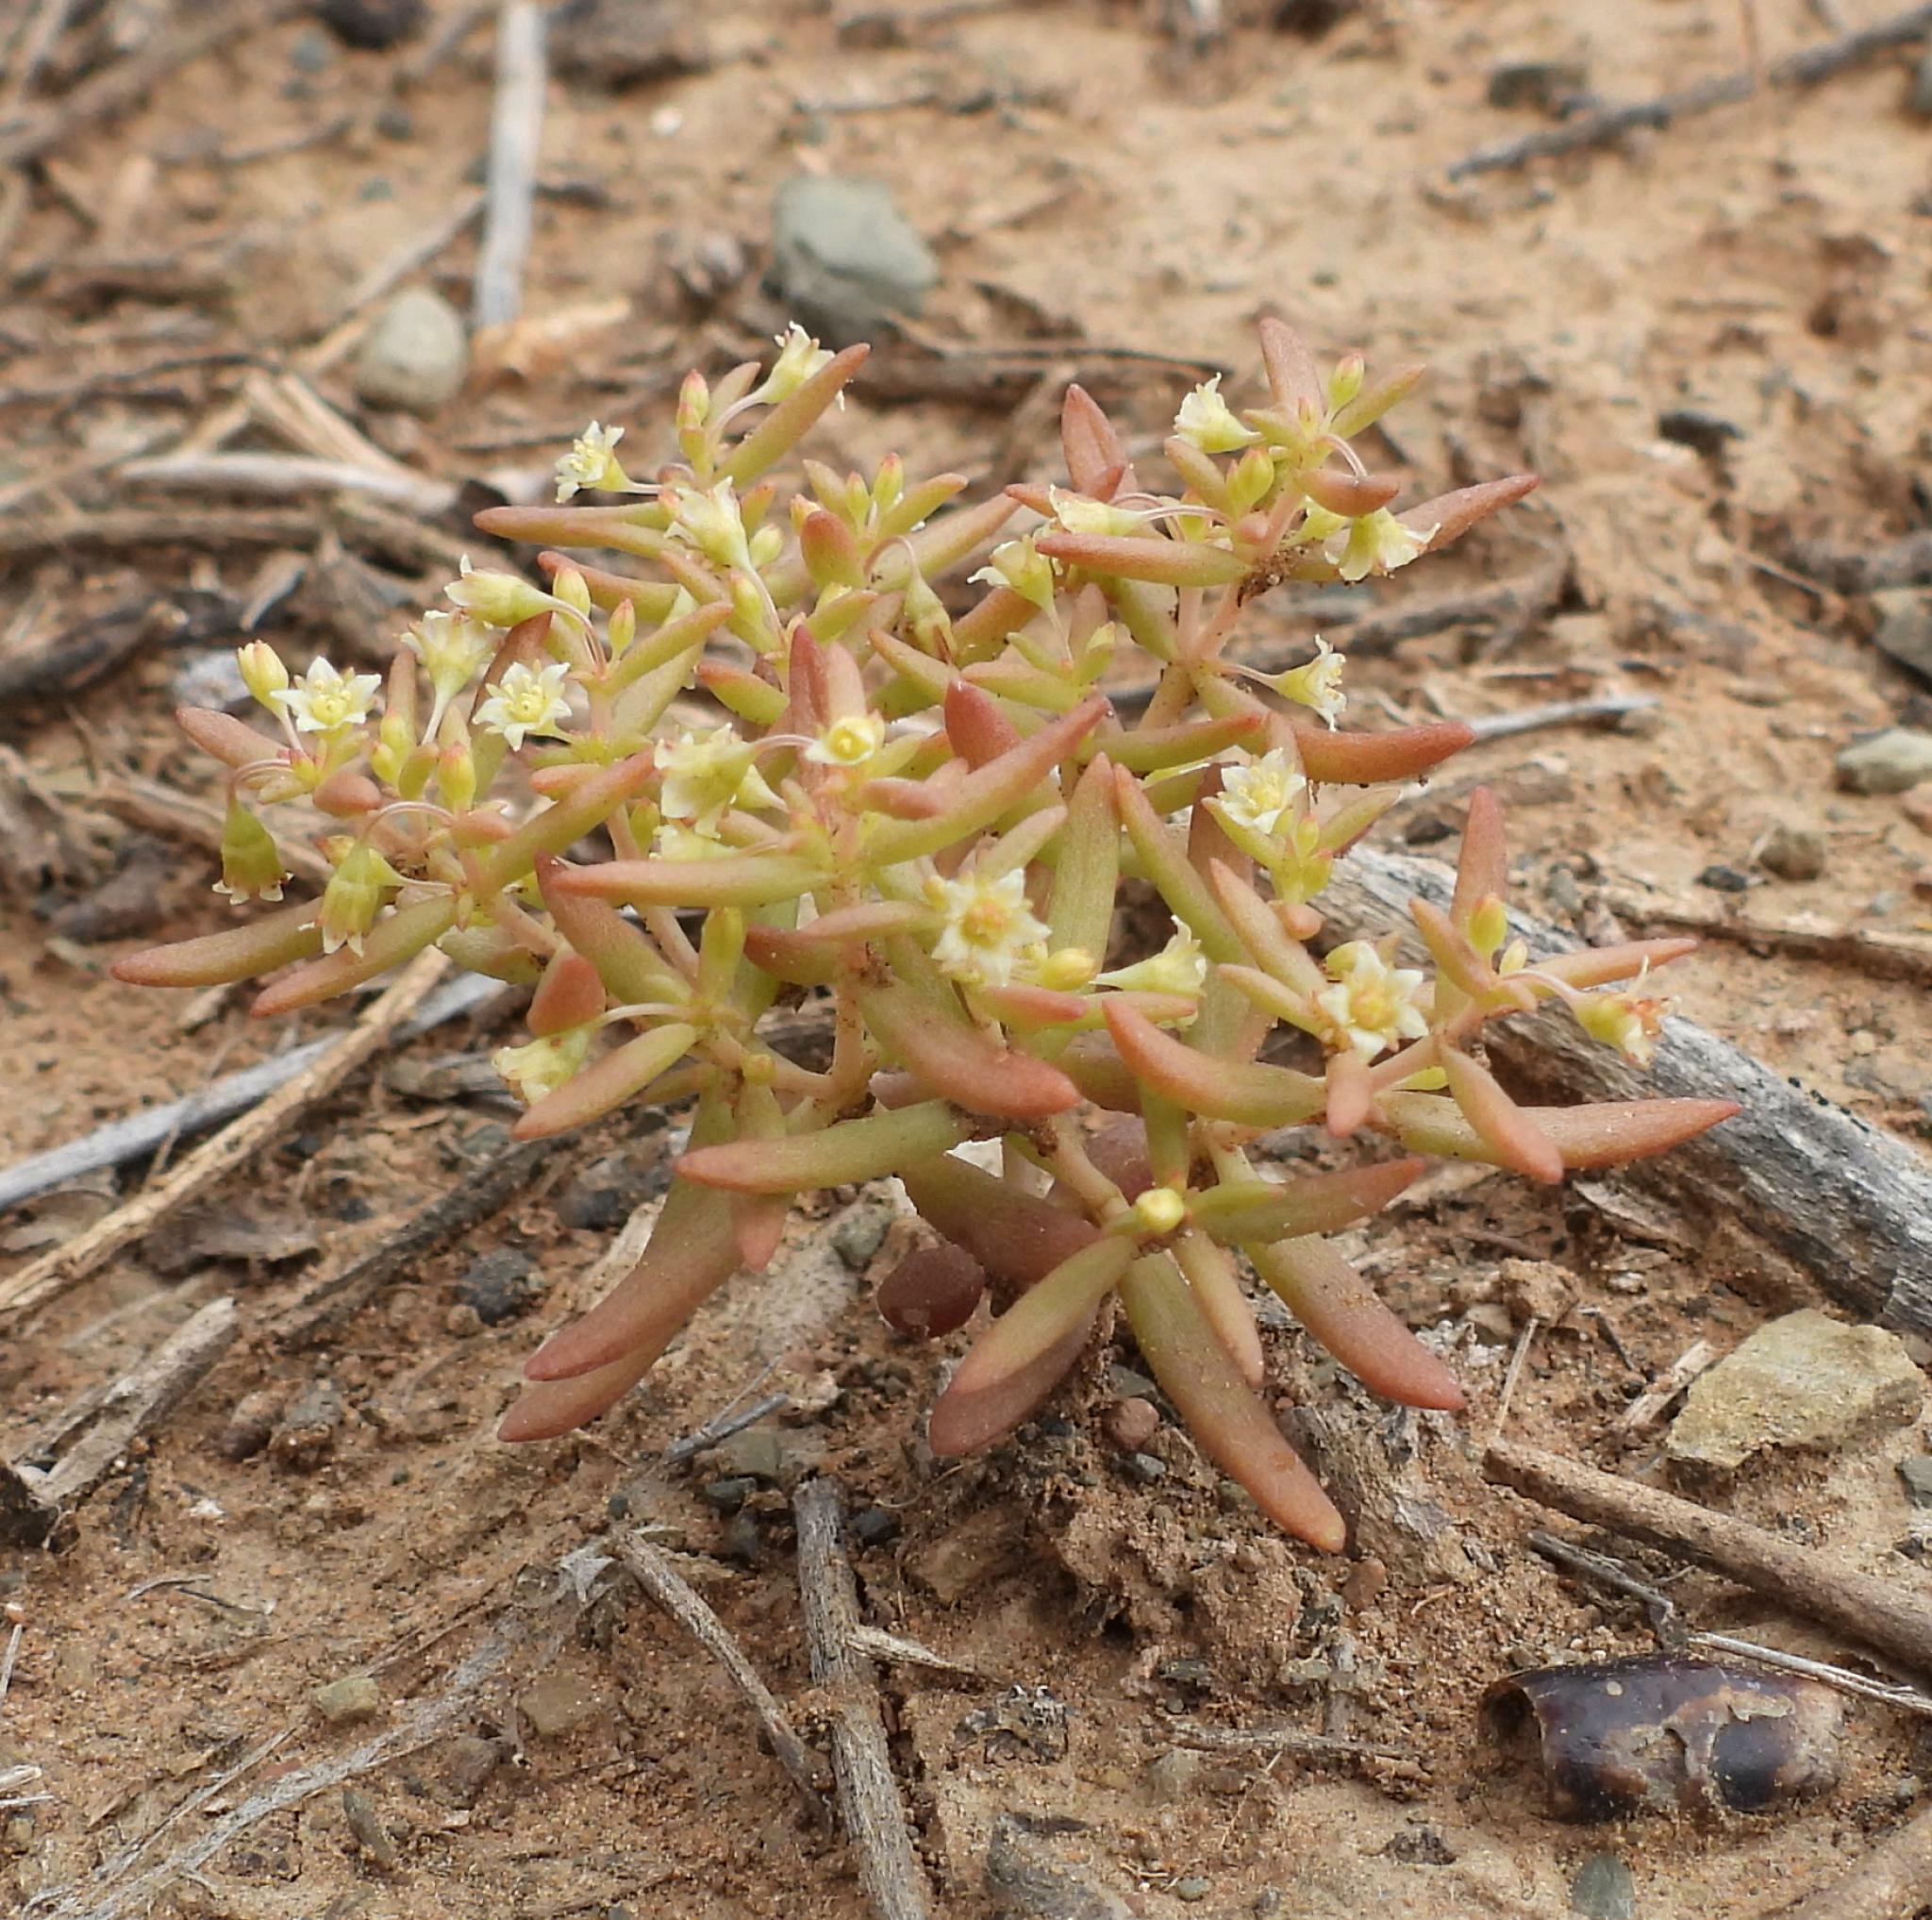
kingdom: Plantae
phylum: Tracheophyta
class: Magnoliopsida
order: Saxifragales
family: Crassulaceae
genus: Crassula
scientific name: Crassula expansa
